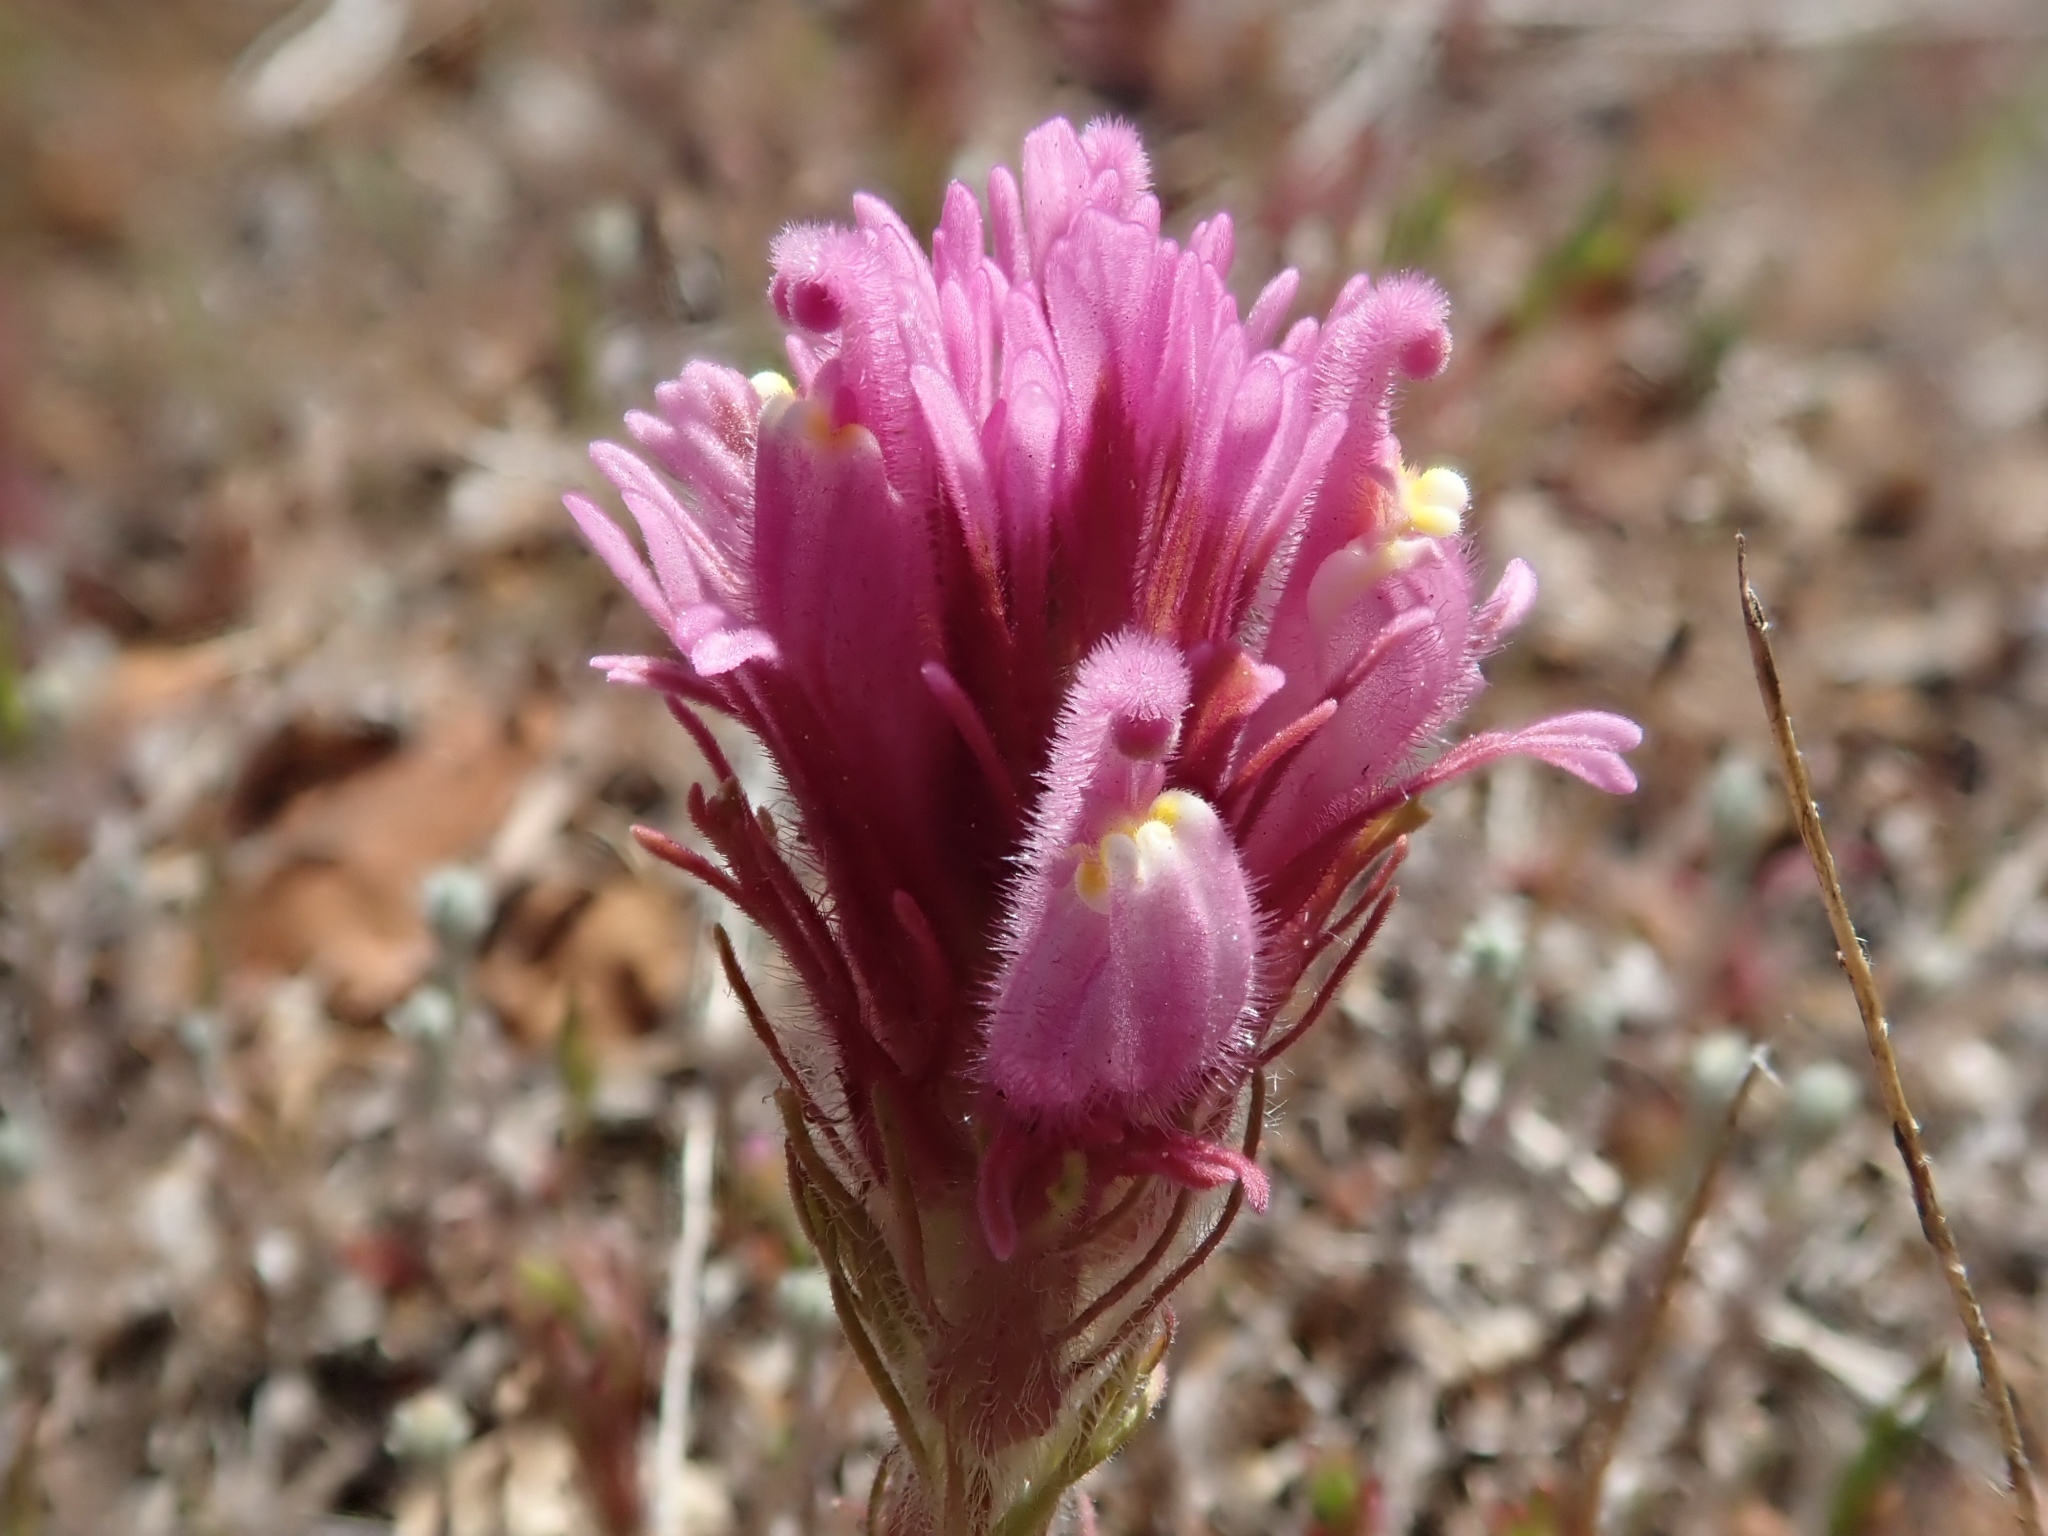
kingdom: Plantae
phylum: Tracheophyta
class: Magnoliopsida
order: Lamiales
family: Orobanchaceae
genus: Castilleja
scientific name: Castilleja exserta
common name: Purple owl-clover
